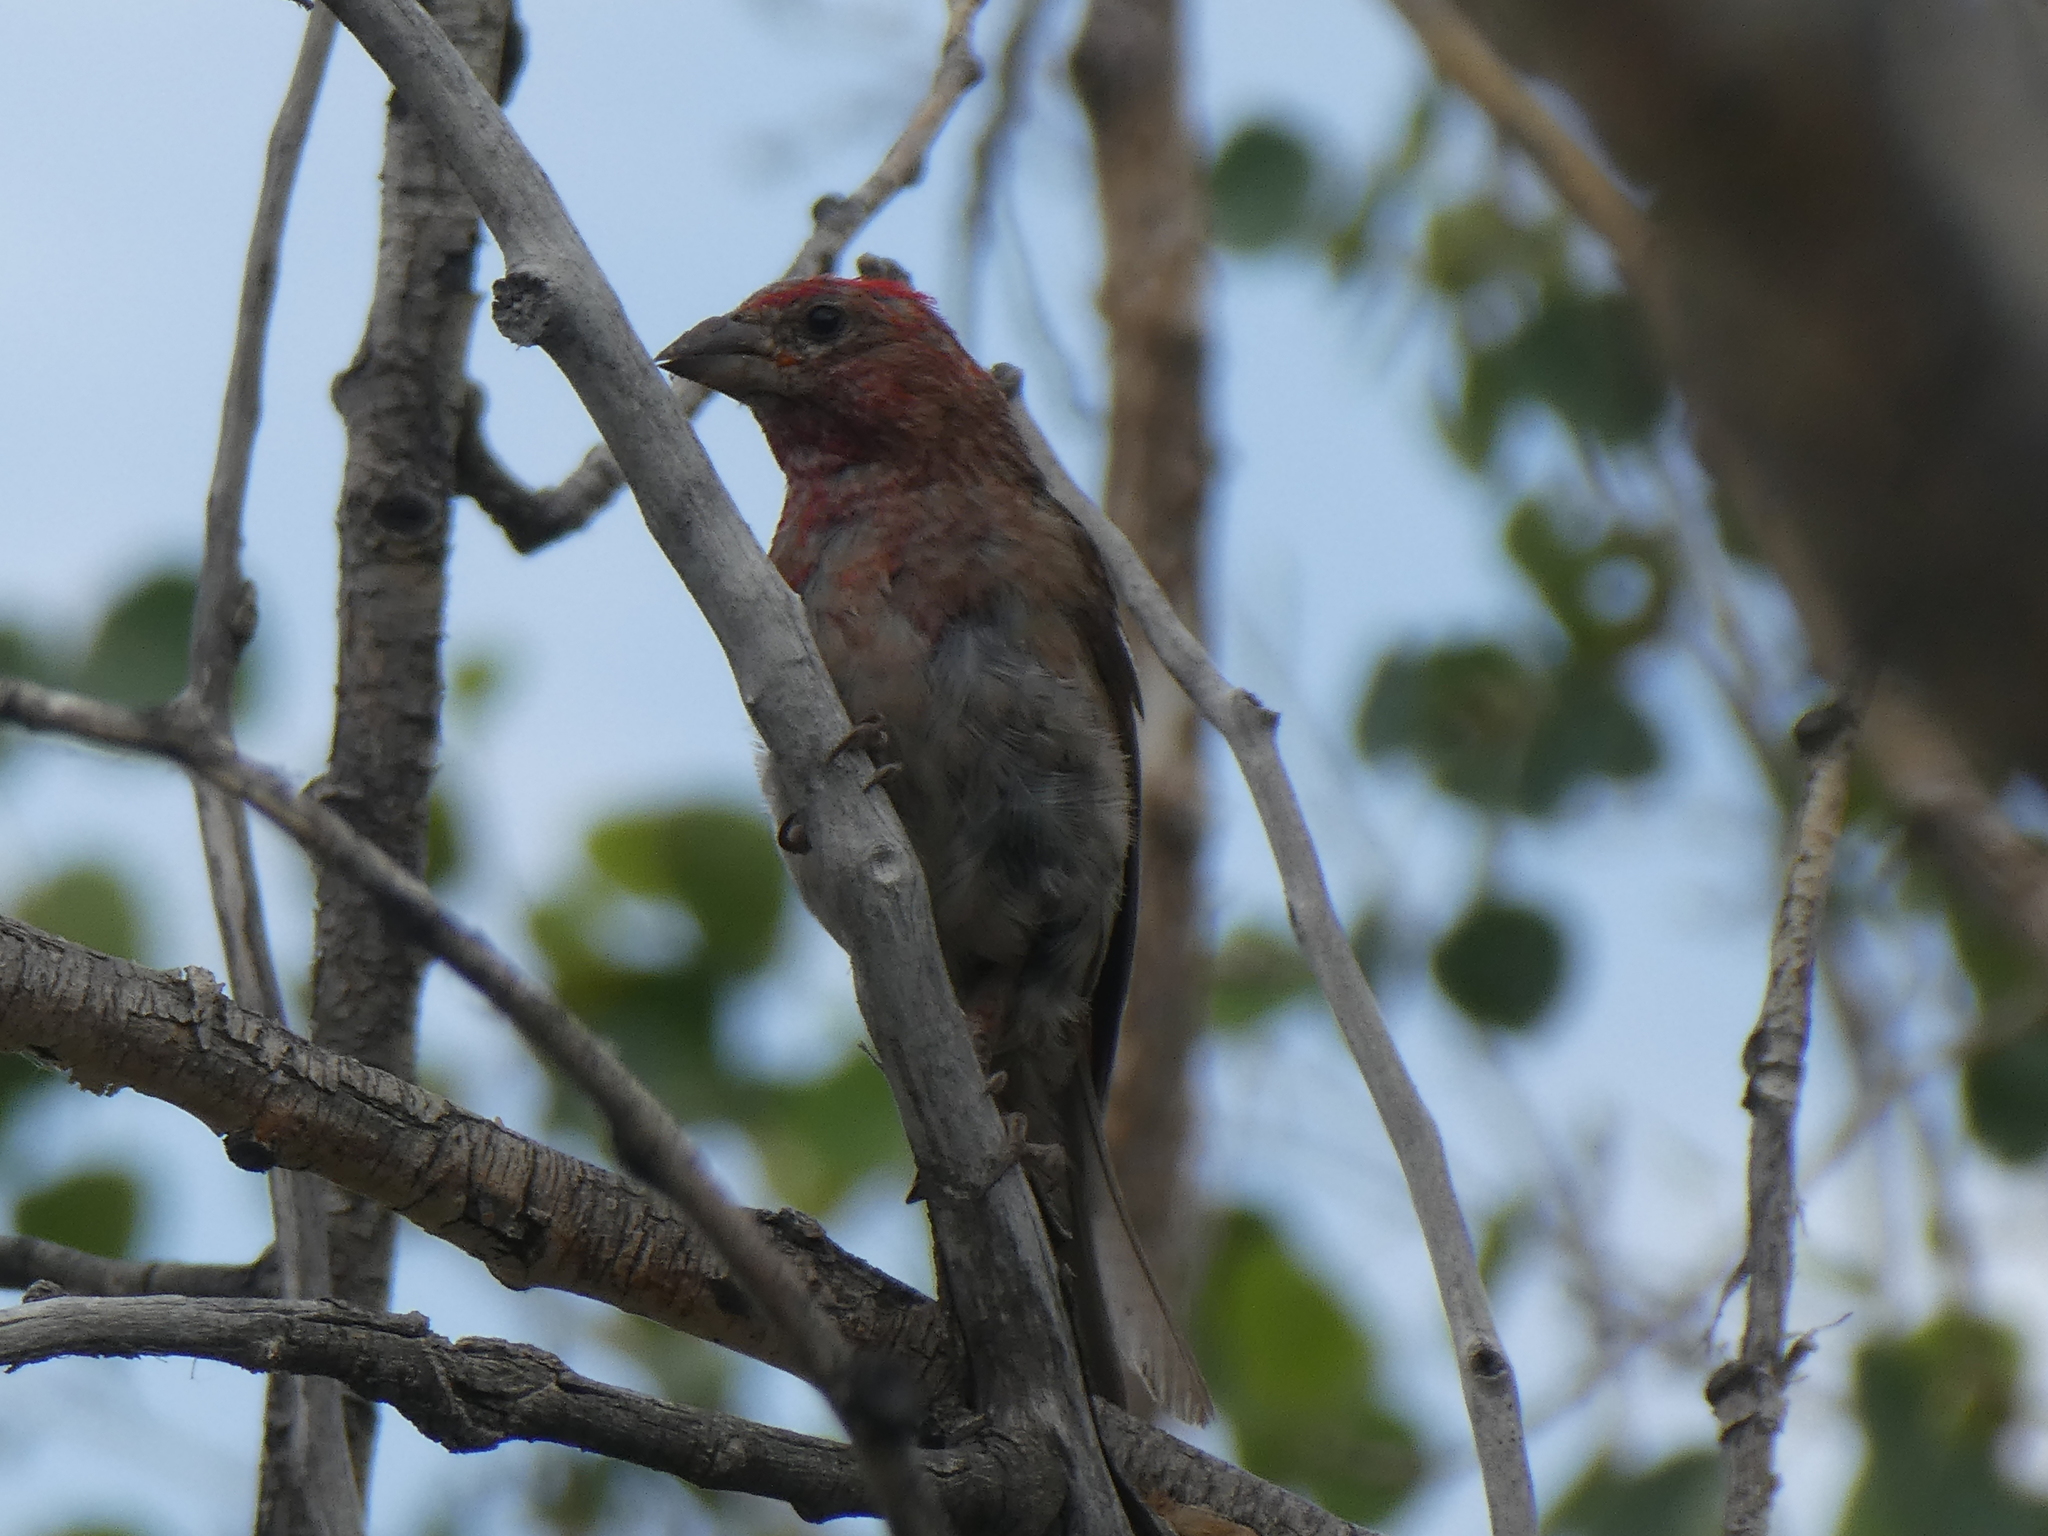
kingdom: Animalia
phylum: Chordata
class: Aves
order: Passeriformes
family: Fringillidae
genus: Haemorhous
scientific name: Haemorhous cassinii
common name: Cassin's finch
